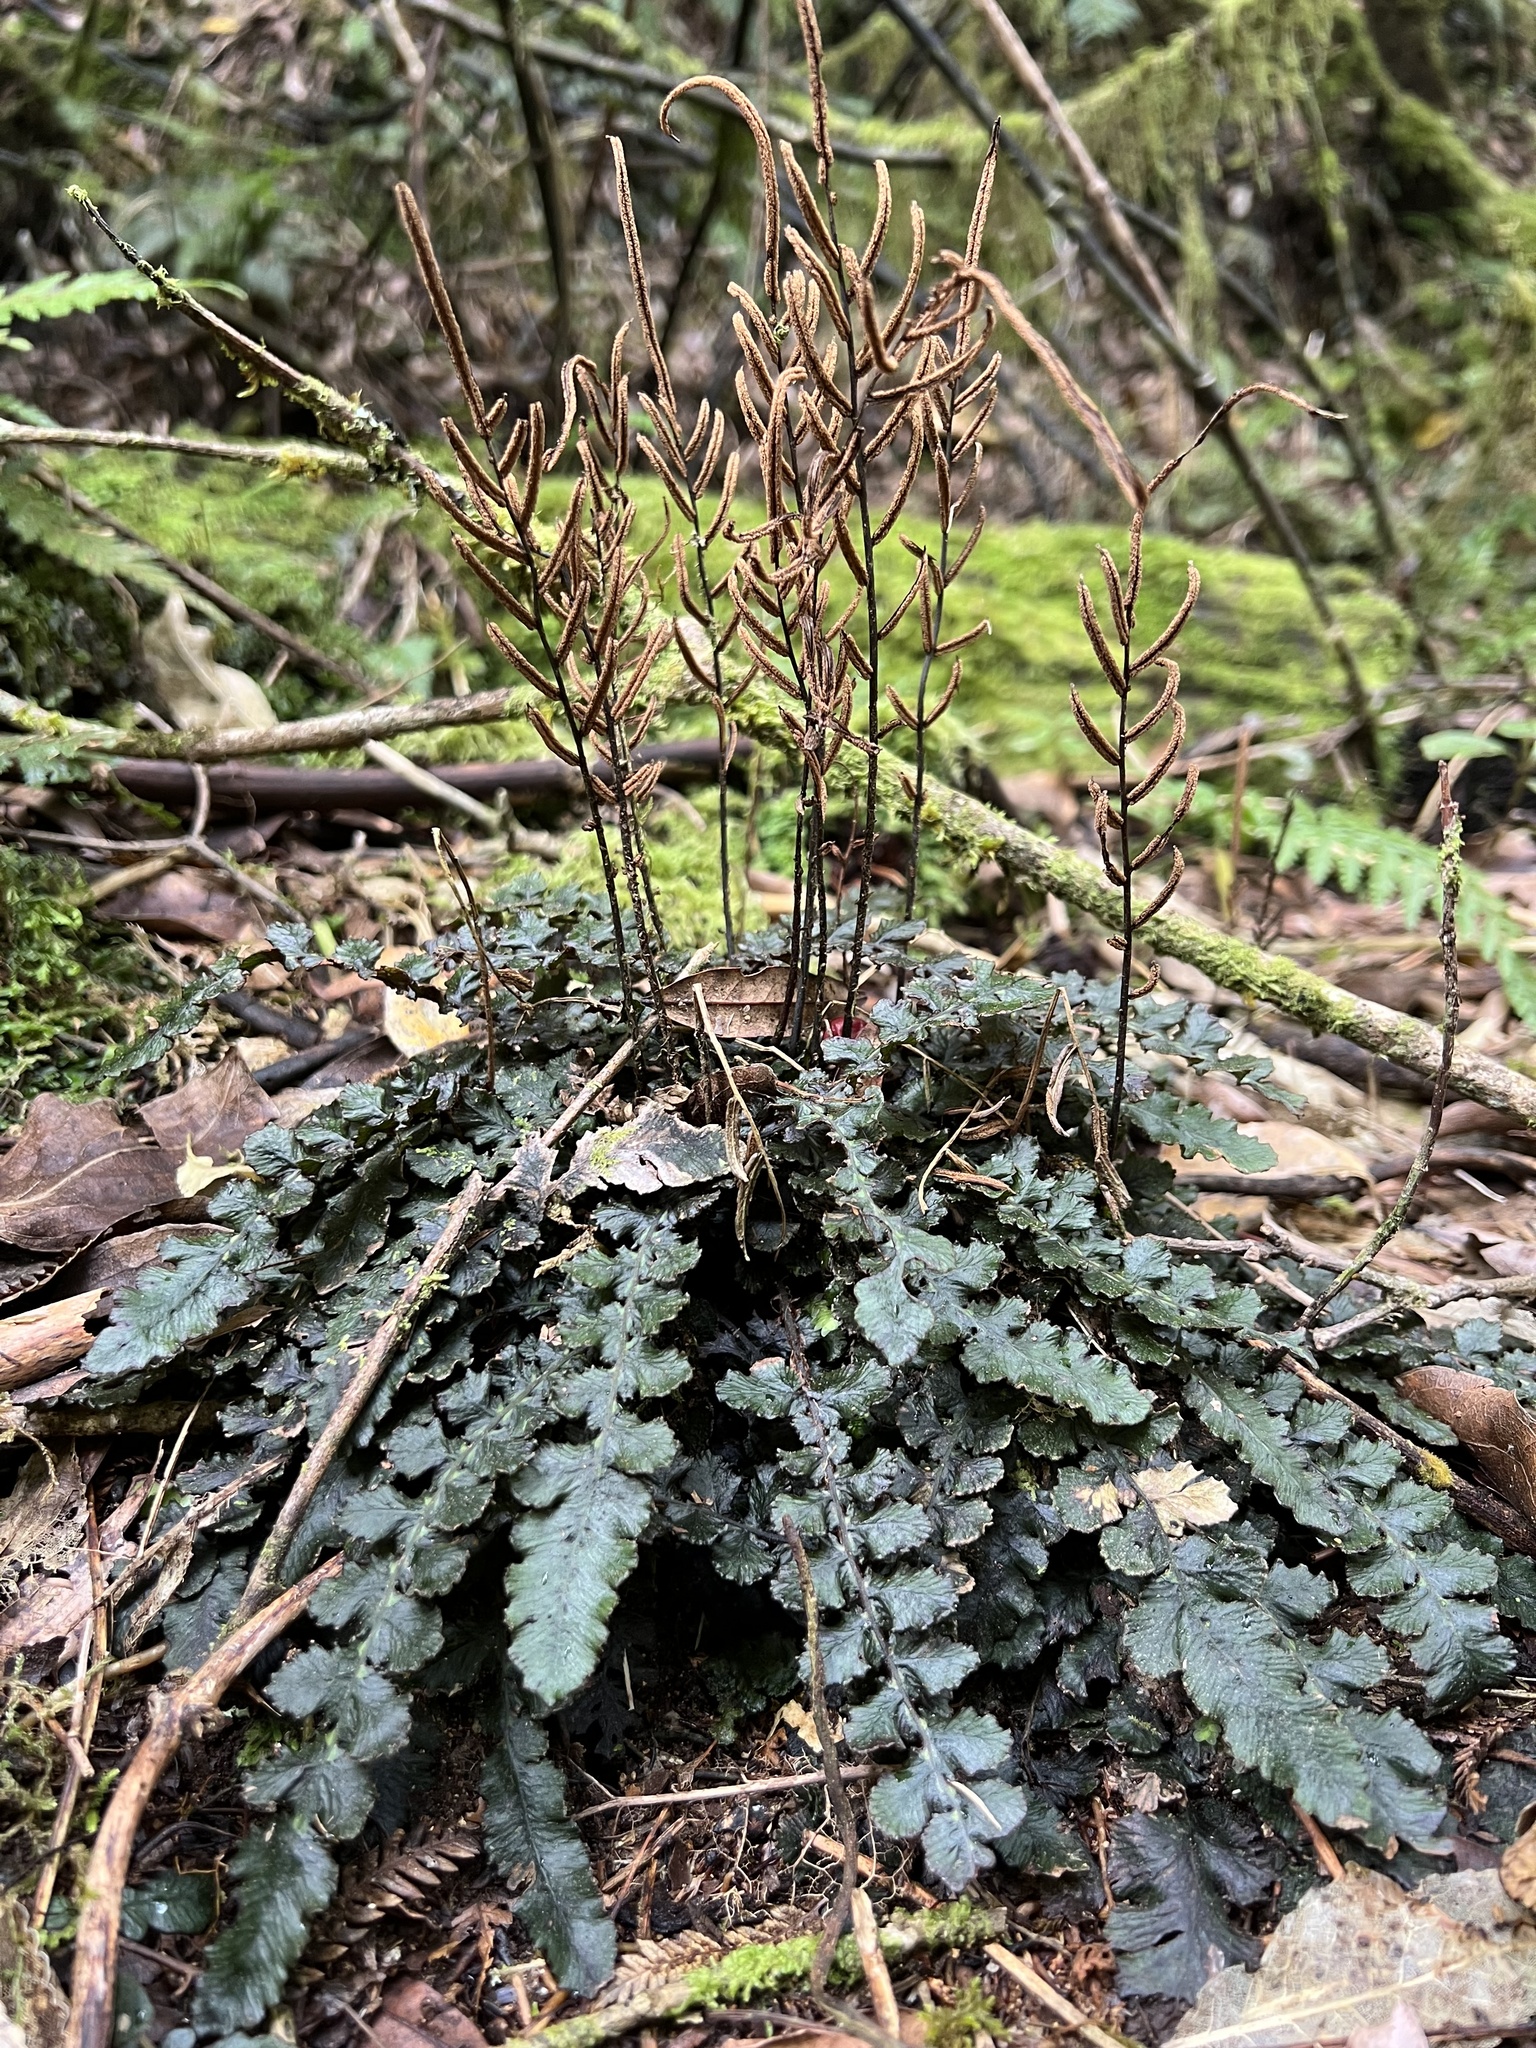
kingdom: Plantae
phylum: Tracheophyta
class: Polypodiopsida
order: Polypodiales
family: Blechnaceae
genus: Cranfillia
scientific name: Cranfillia nigra
